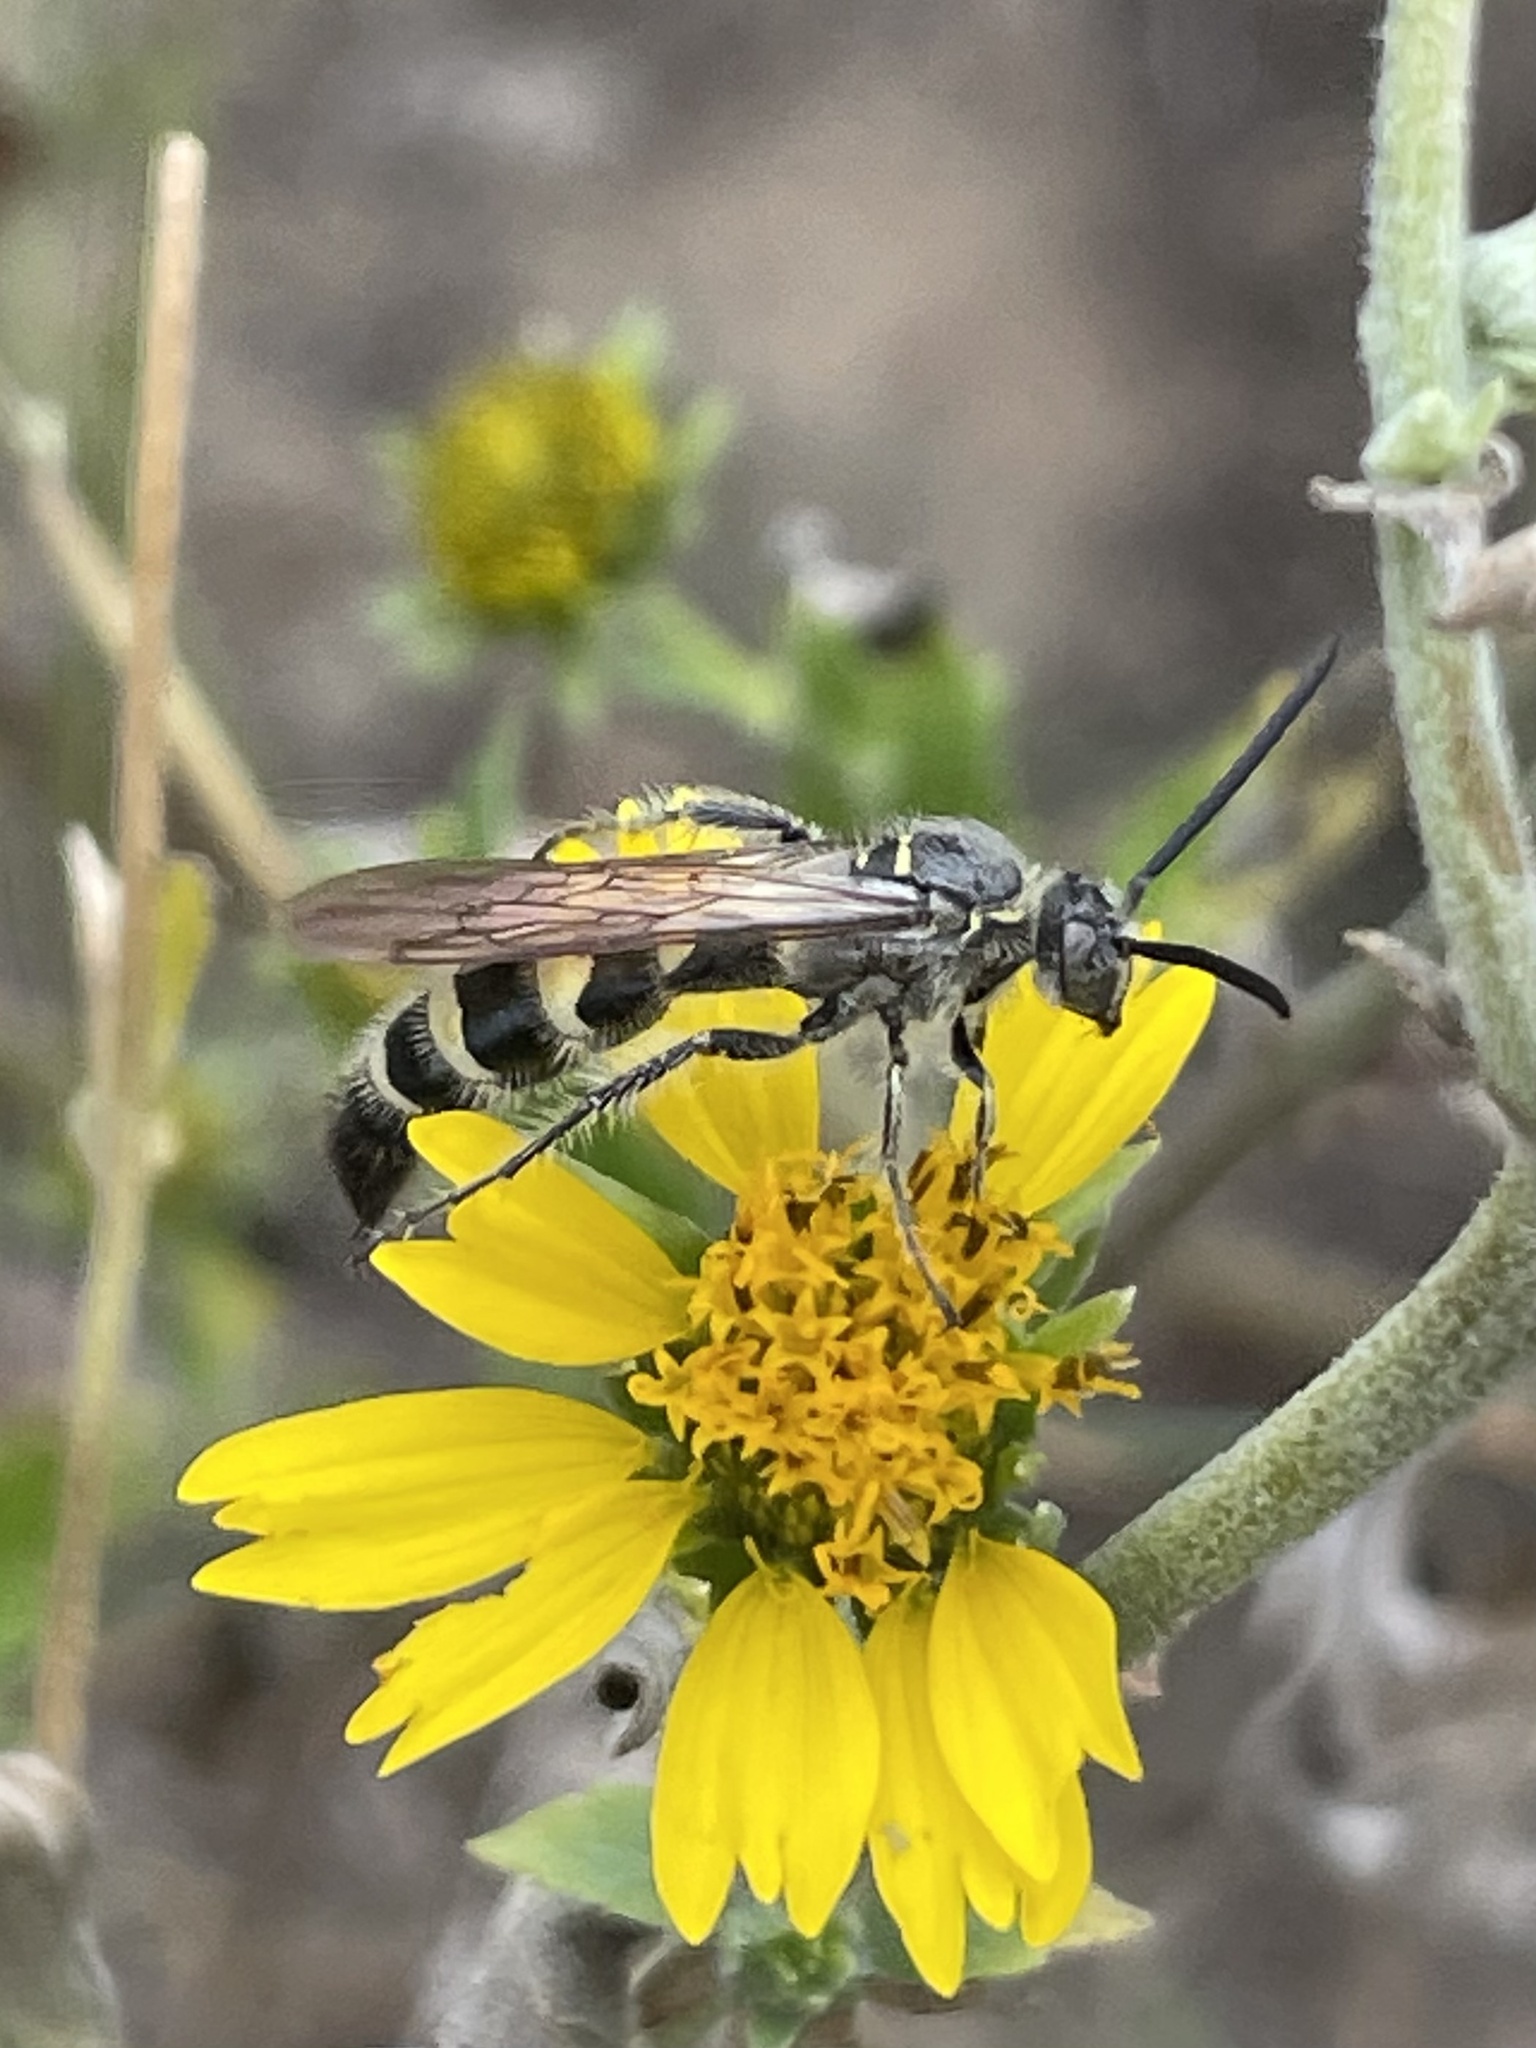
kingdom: Animalia
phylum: Arthropoda
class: Insecta
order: Hymenoptera
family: Scoliidae
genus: Dielis
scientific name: Dielis tolteca
